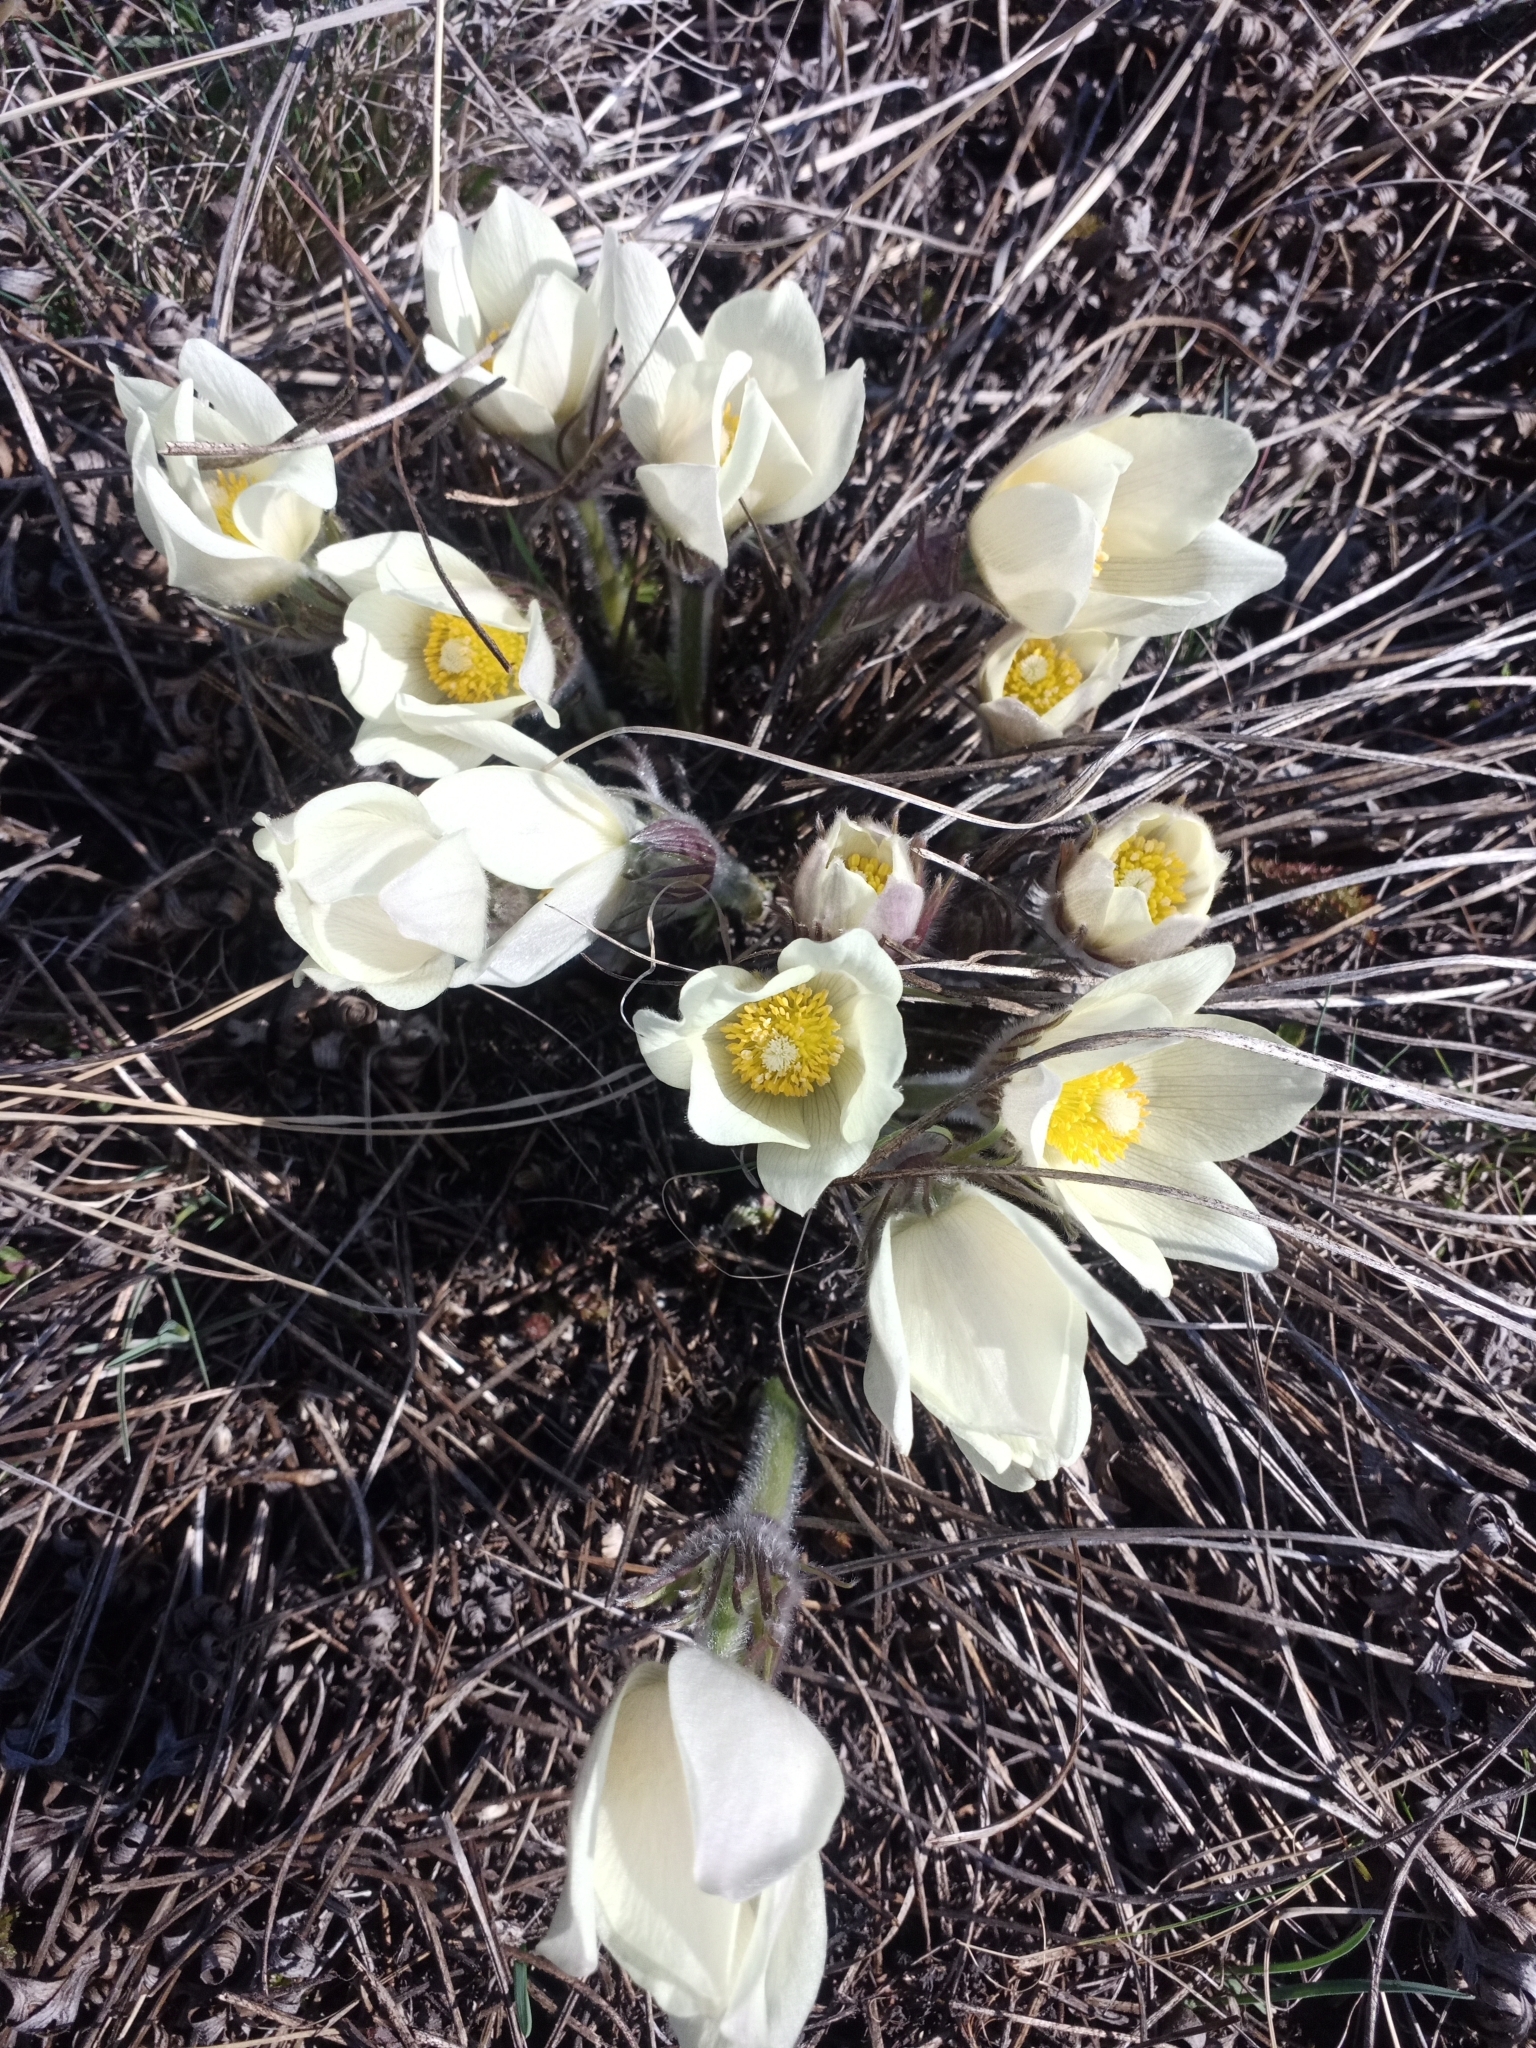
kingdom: Plantae
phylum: Tracheophyta
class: Magnoliopsida
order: Ranunculales
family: Ranunculaceae
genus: Pulsatilla
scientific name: Pulsatilla patens
